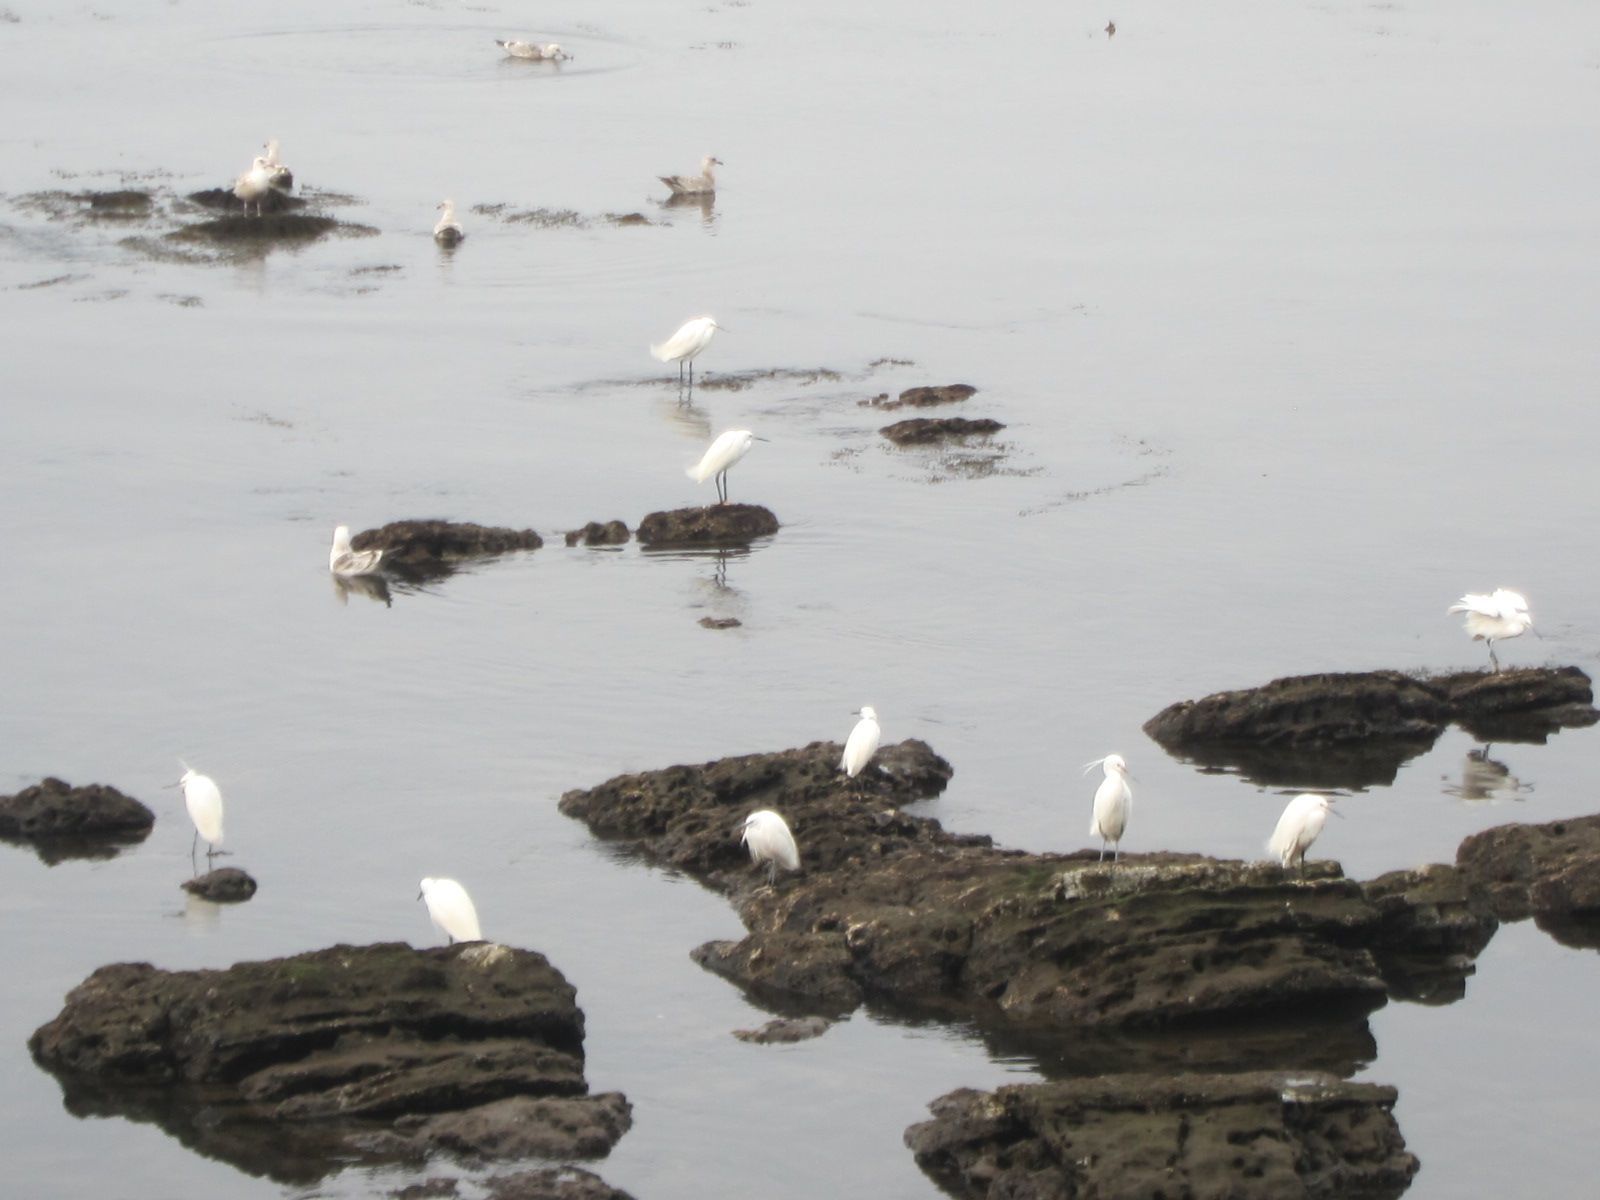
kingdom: Animalia
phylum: Chordata
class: Aves
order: Pelecaniformes
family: Ardeidae
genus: Egretta
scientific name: Egretta garzetta
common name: Little egret
